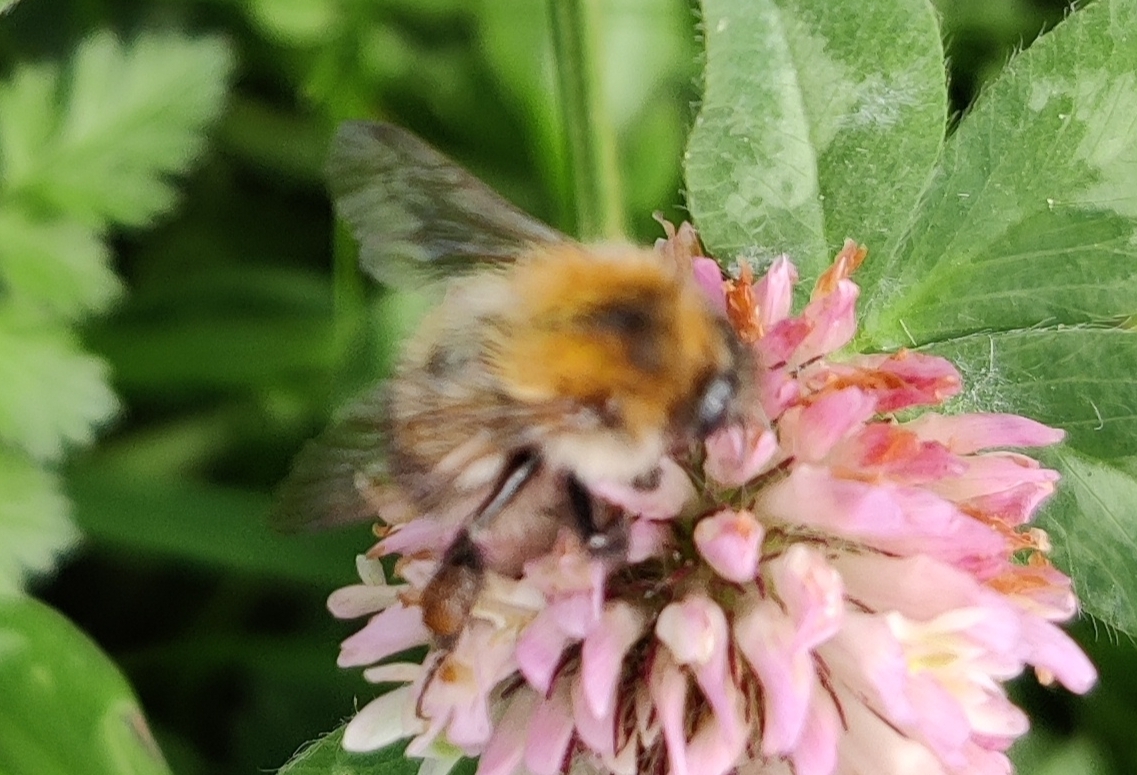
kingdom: Animalia
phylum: Arthropoda
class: Insecta
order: Hymenoptera
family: Apidae
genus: Bombus
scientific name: Bombus pascuorum
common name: Common carder bee
